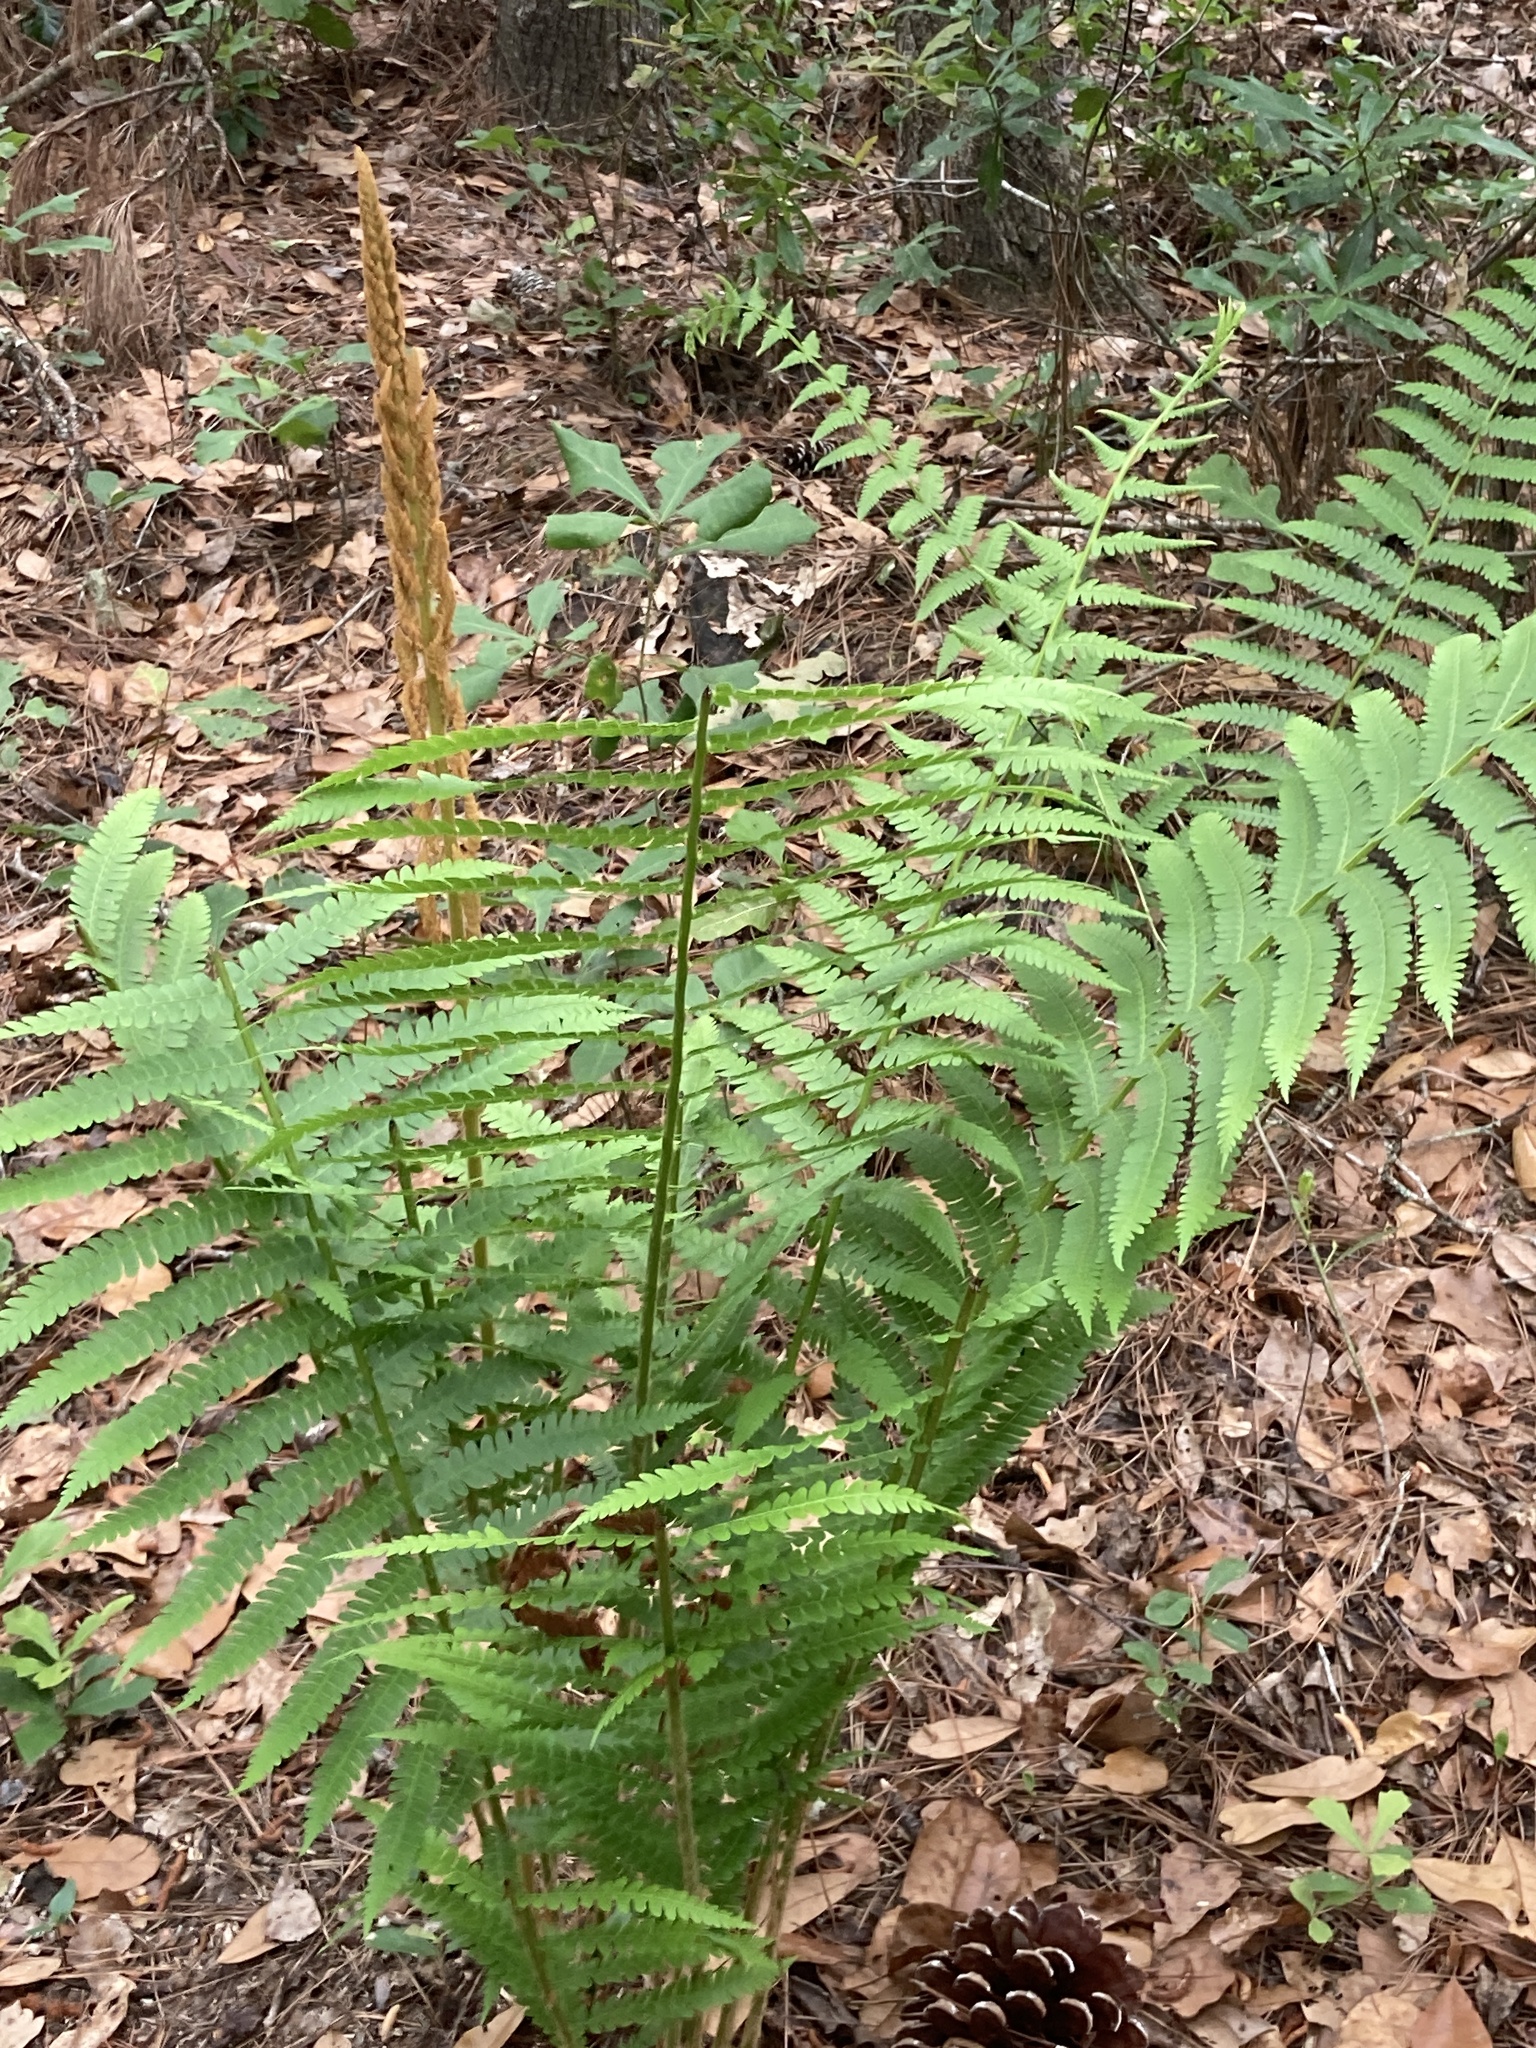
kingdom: Plantae
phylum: Tracheophyta
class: Polypodiopsida
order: Osmundales
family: Osmundaceae
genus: Osmundastrum
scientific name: Osmundastrum cinnamomeum
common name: Cinnamon fern
